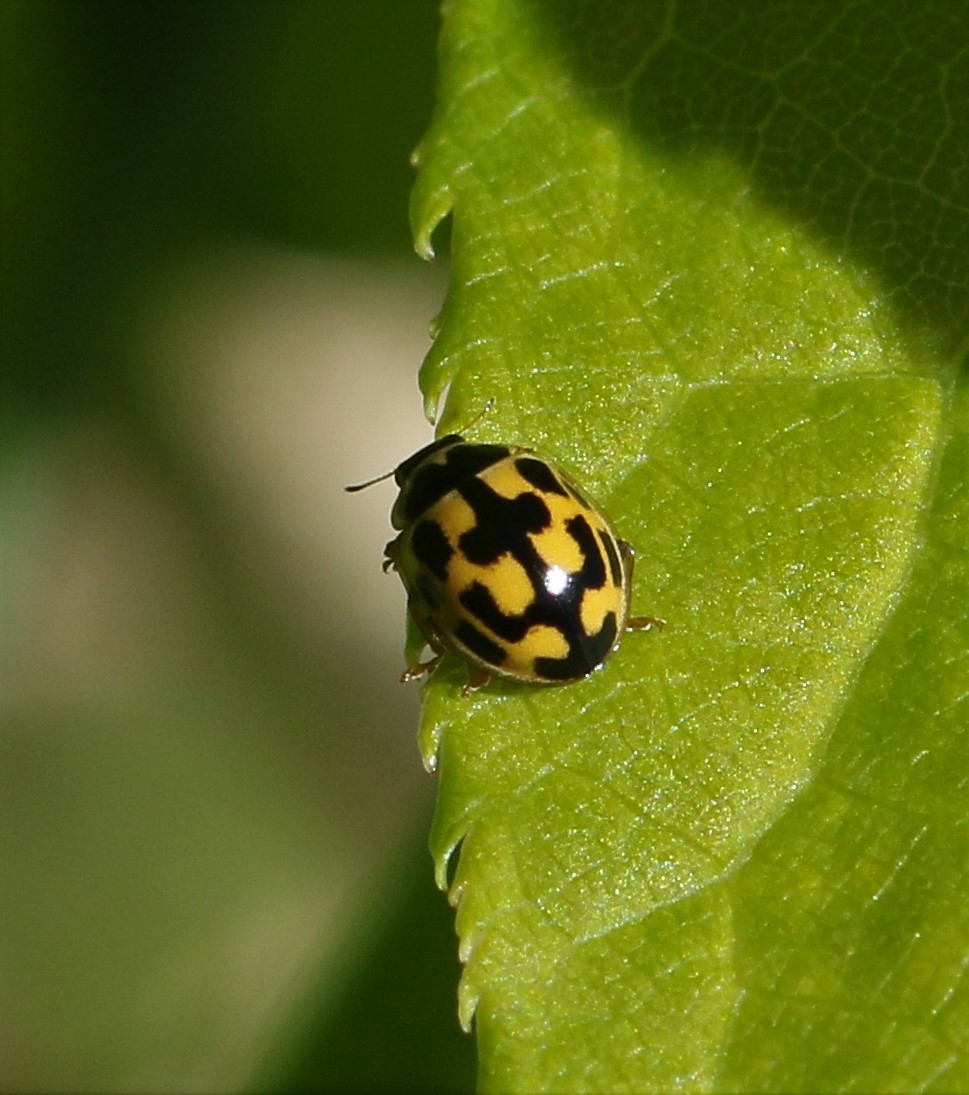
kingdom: Animalia
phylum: Arthropoda
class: Insecta
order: Coleoptera
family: Coccinellidae
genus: Propylaea
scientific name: Propylaea quatuordecimpunctata
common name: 14-spotted ladybird beetle
